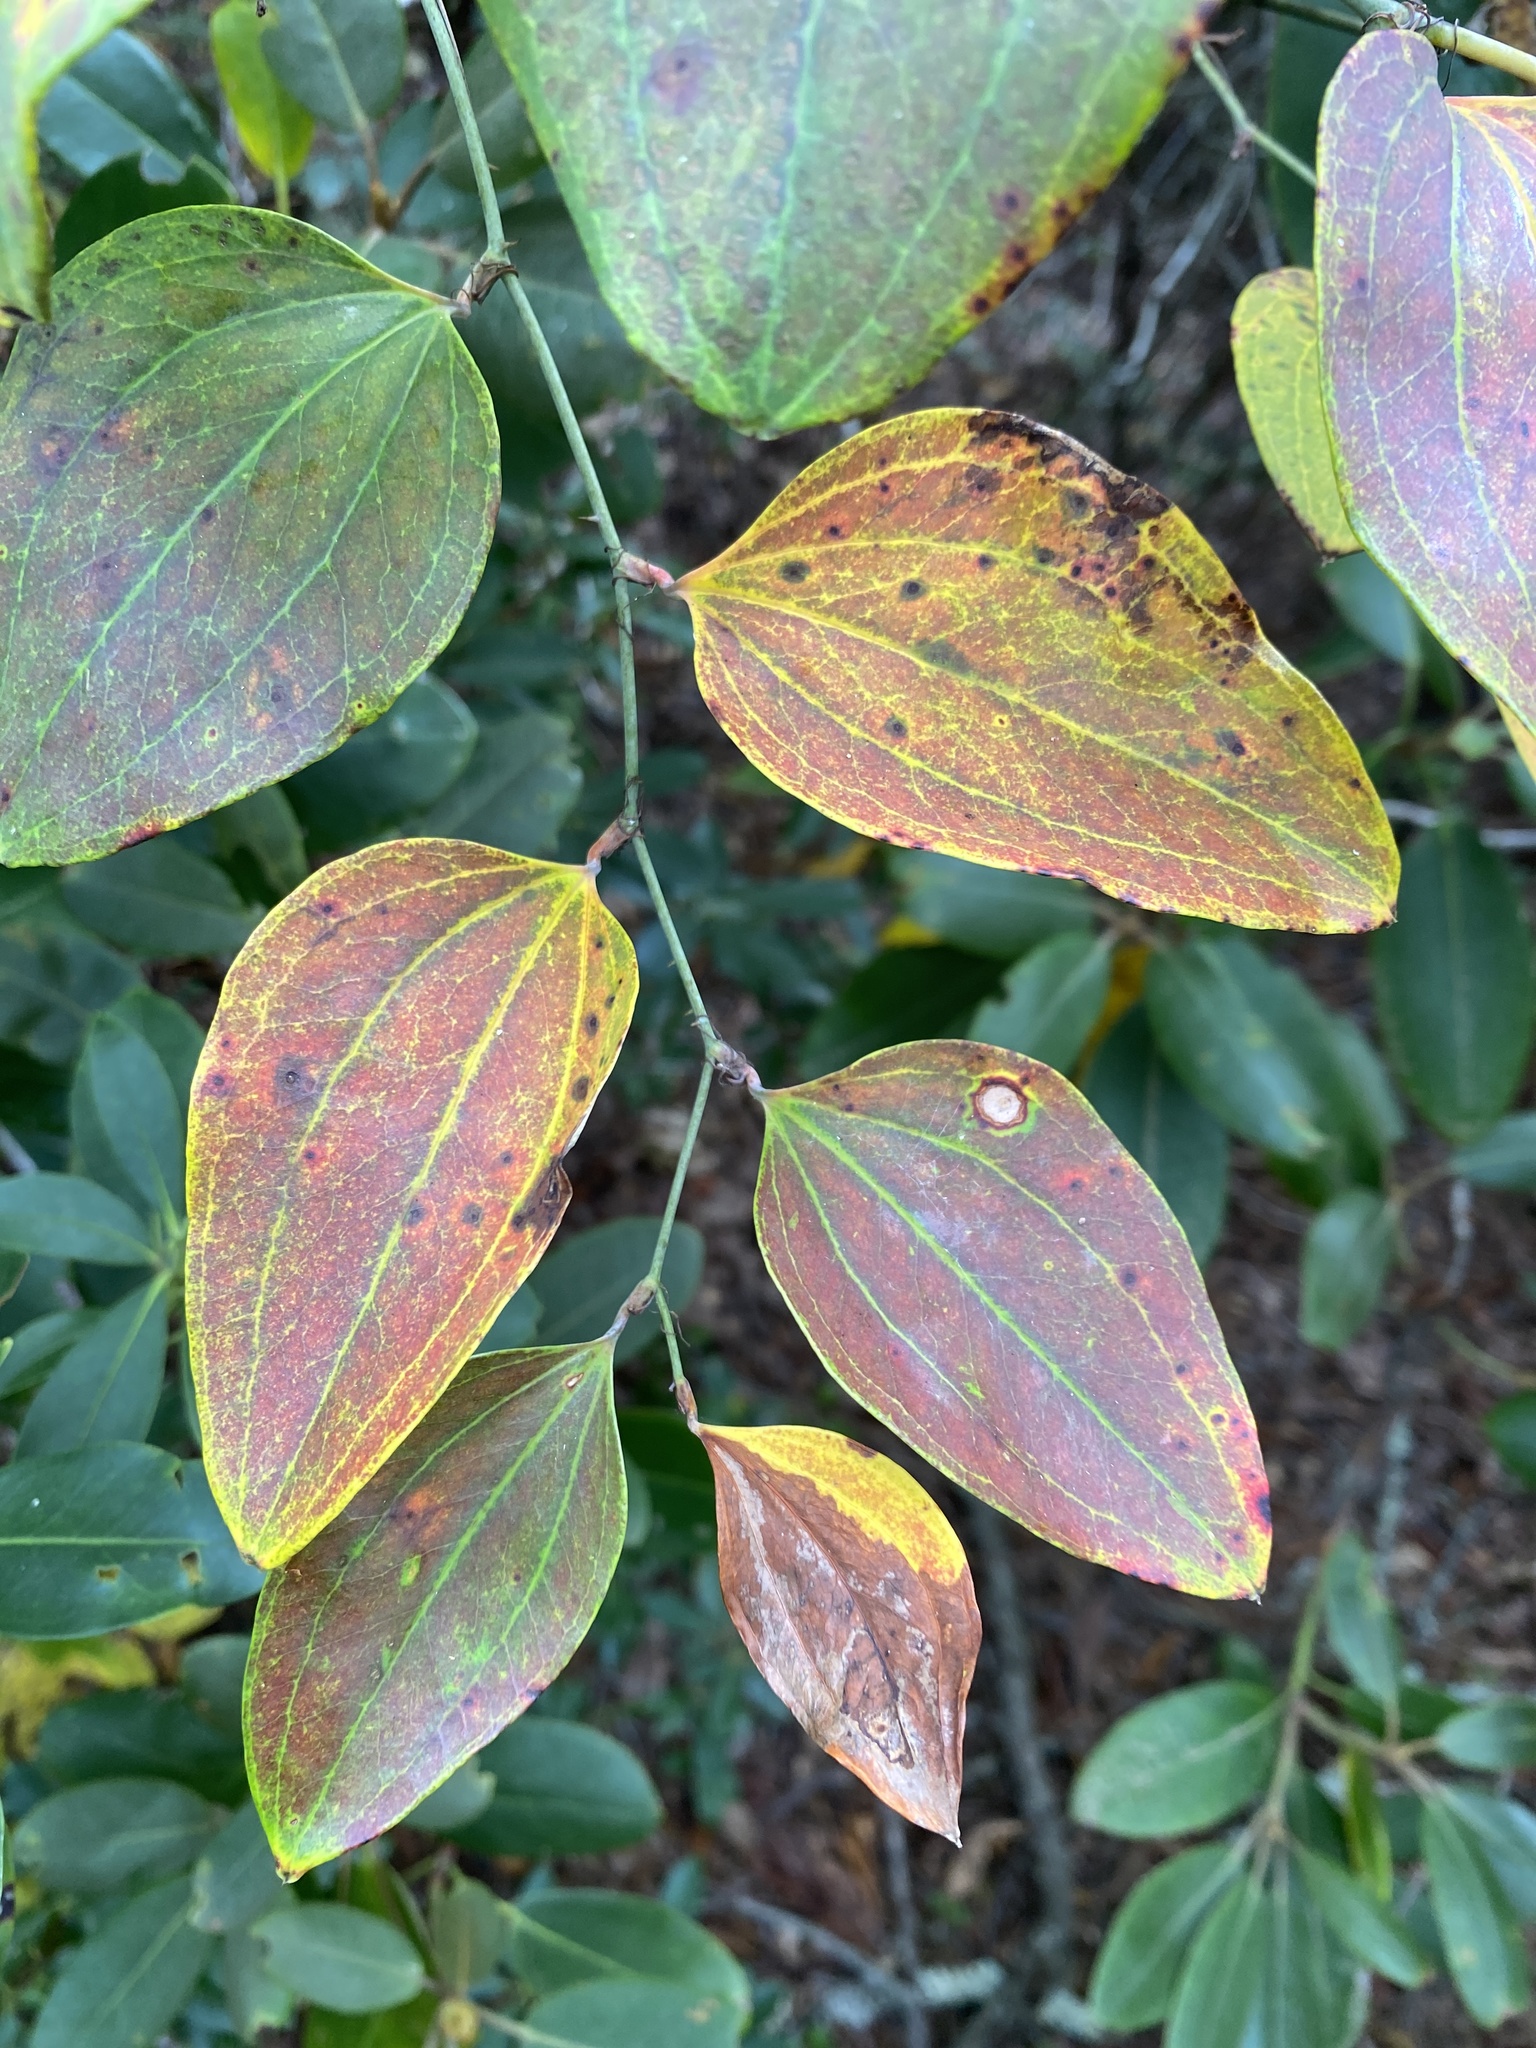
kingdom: Plantae
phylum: Tracheophyta
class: Liliopsida
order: Liliales
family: Smilacaceae
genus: Smilax
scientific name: Smilax glauca
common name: Cat greenbrier
